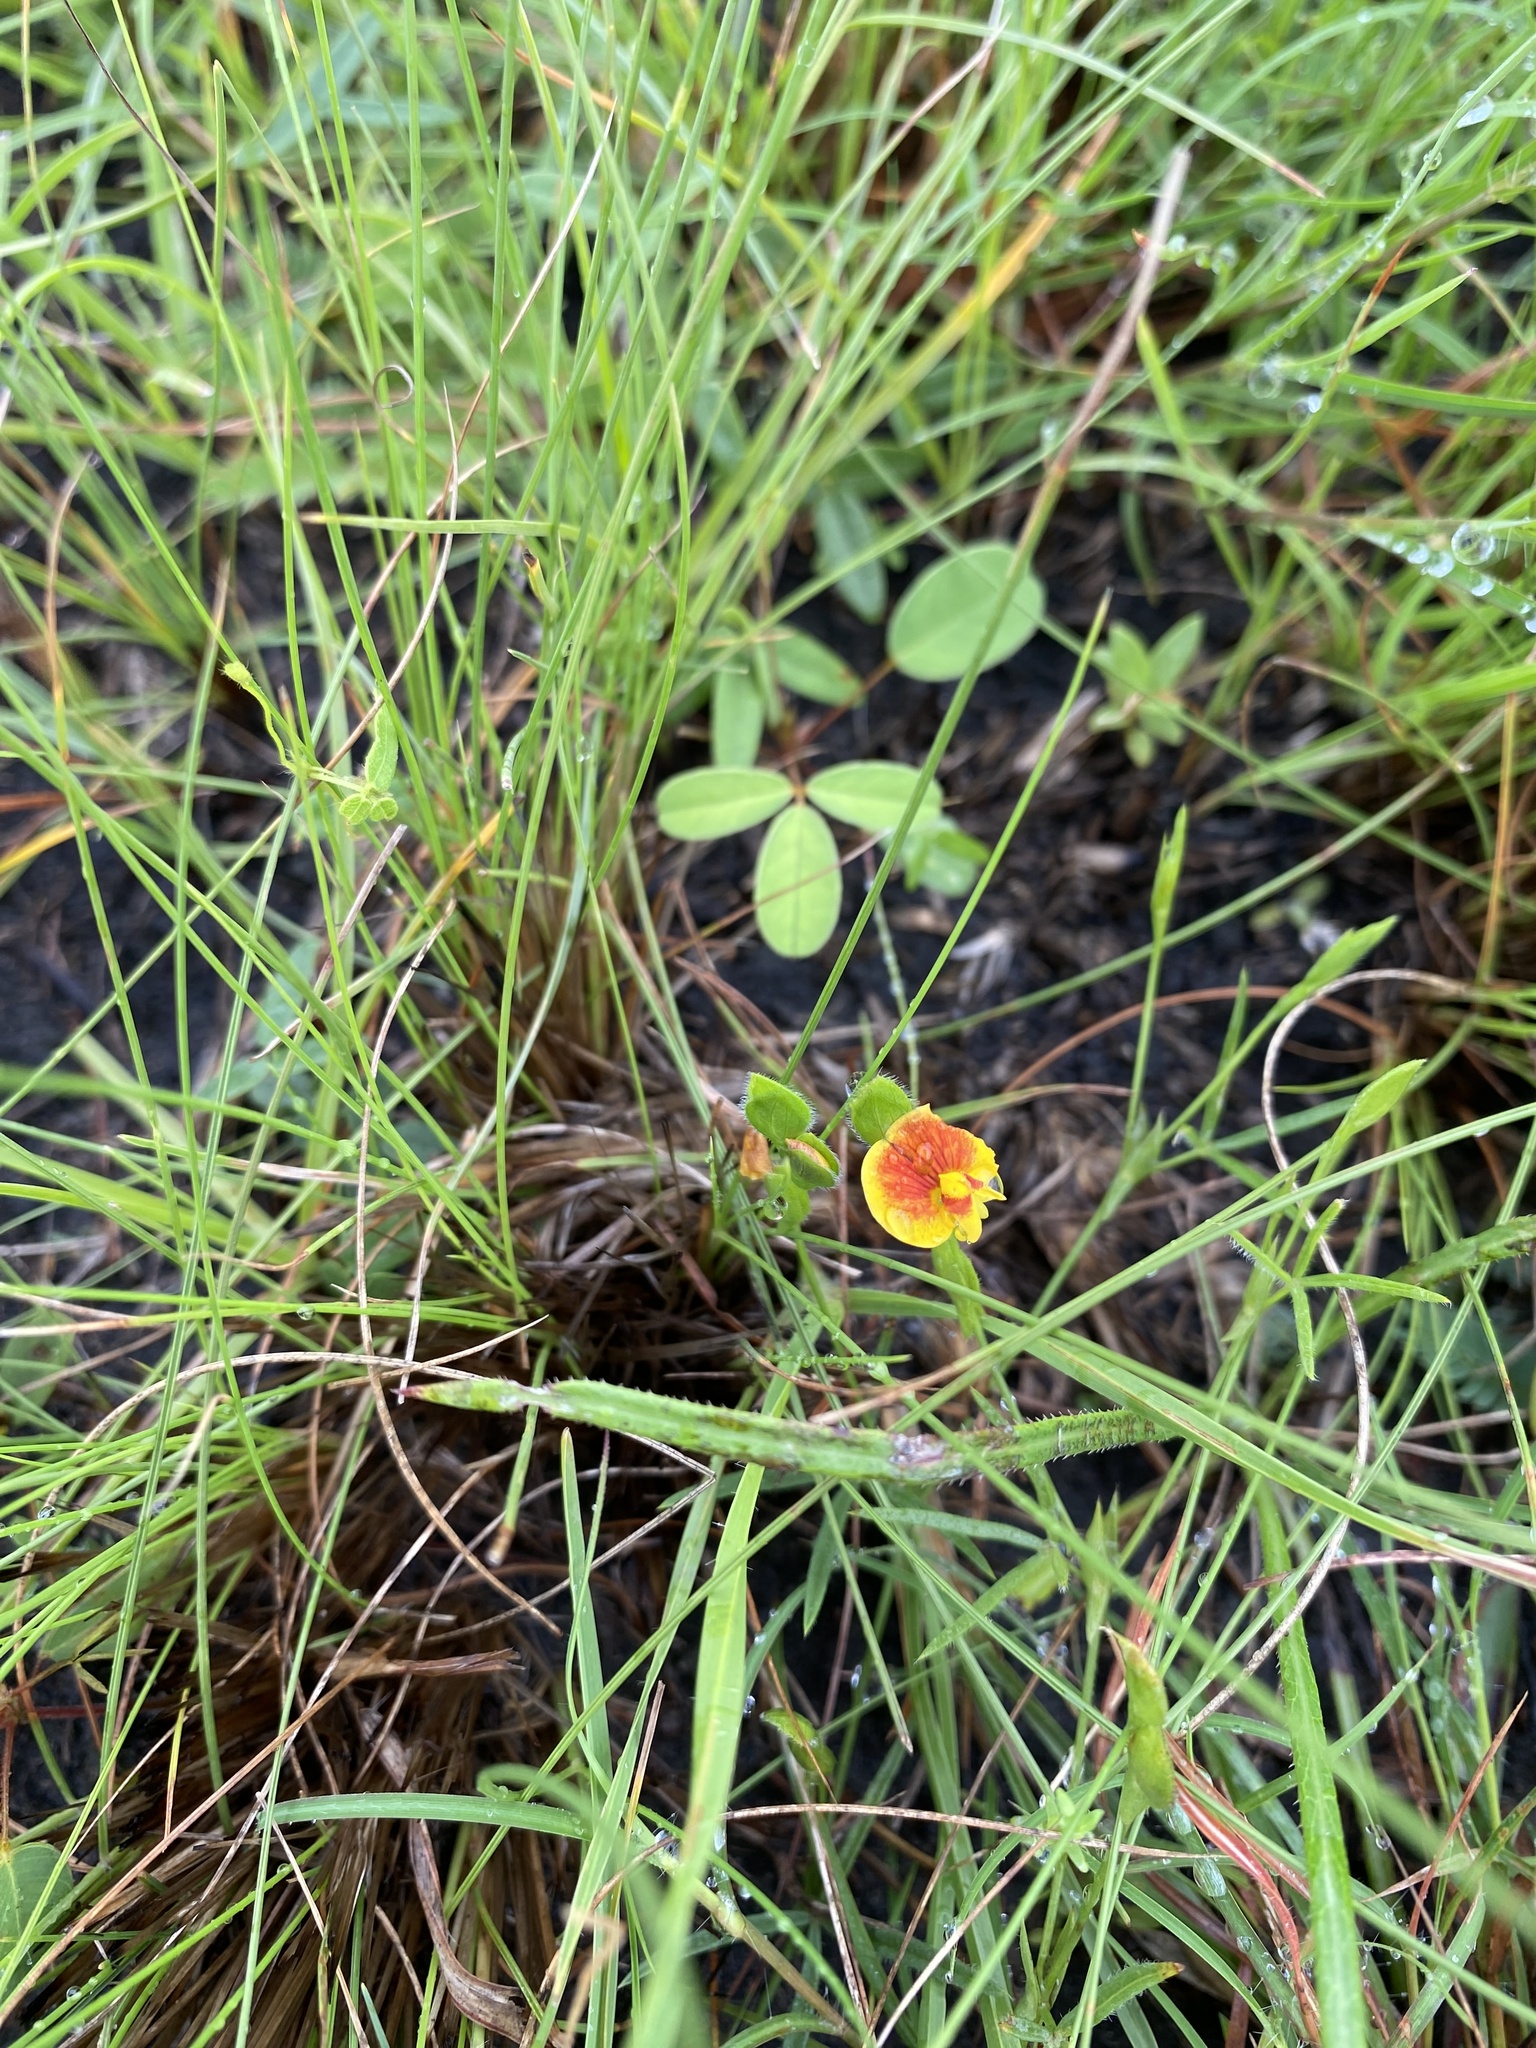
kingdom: Plantae
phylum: Tracheophyta
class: Magnoliopsida
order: Fabales
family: Fabaceae
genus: Zornia
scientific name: Zornia capensis
